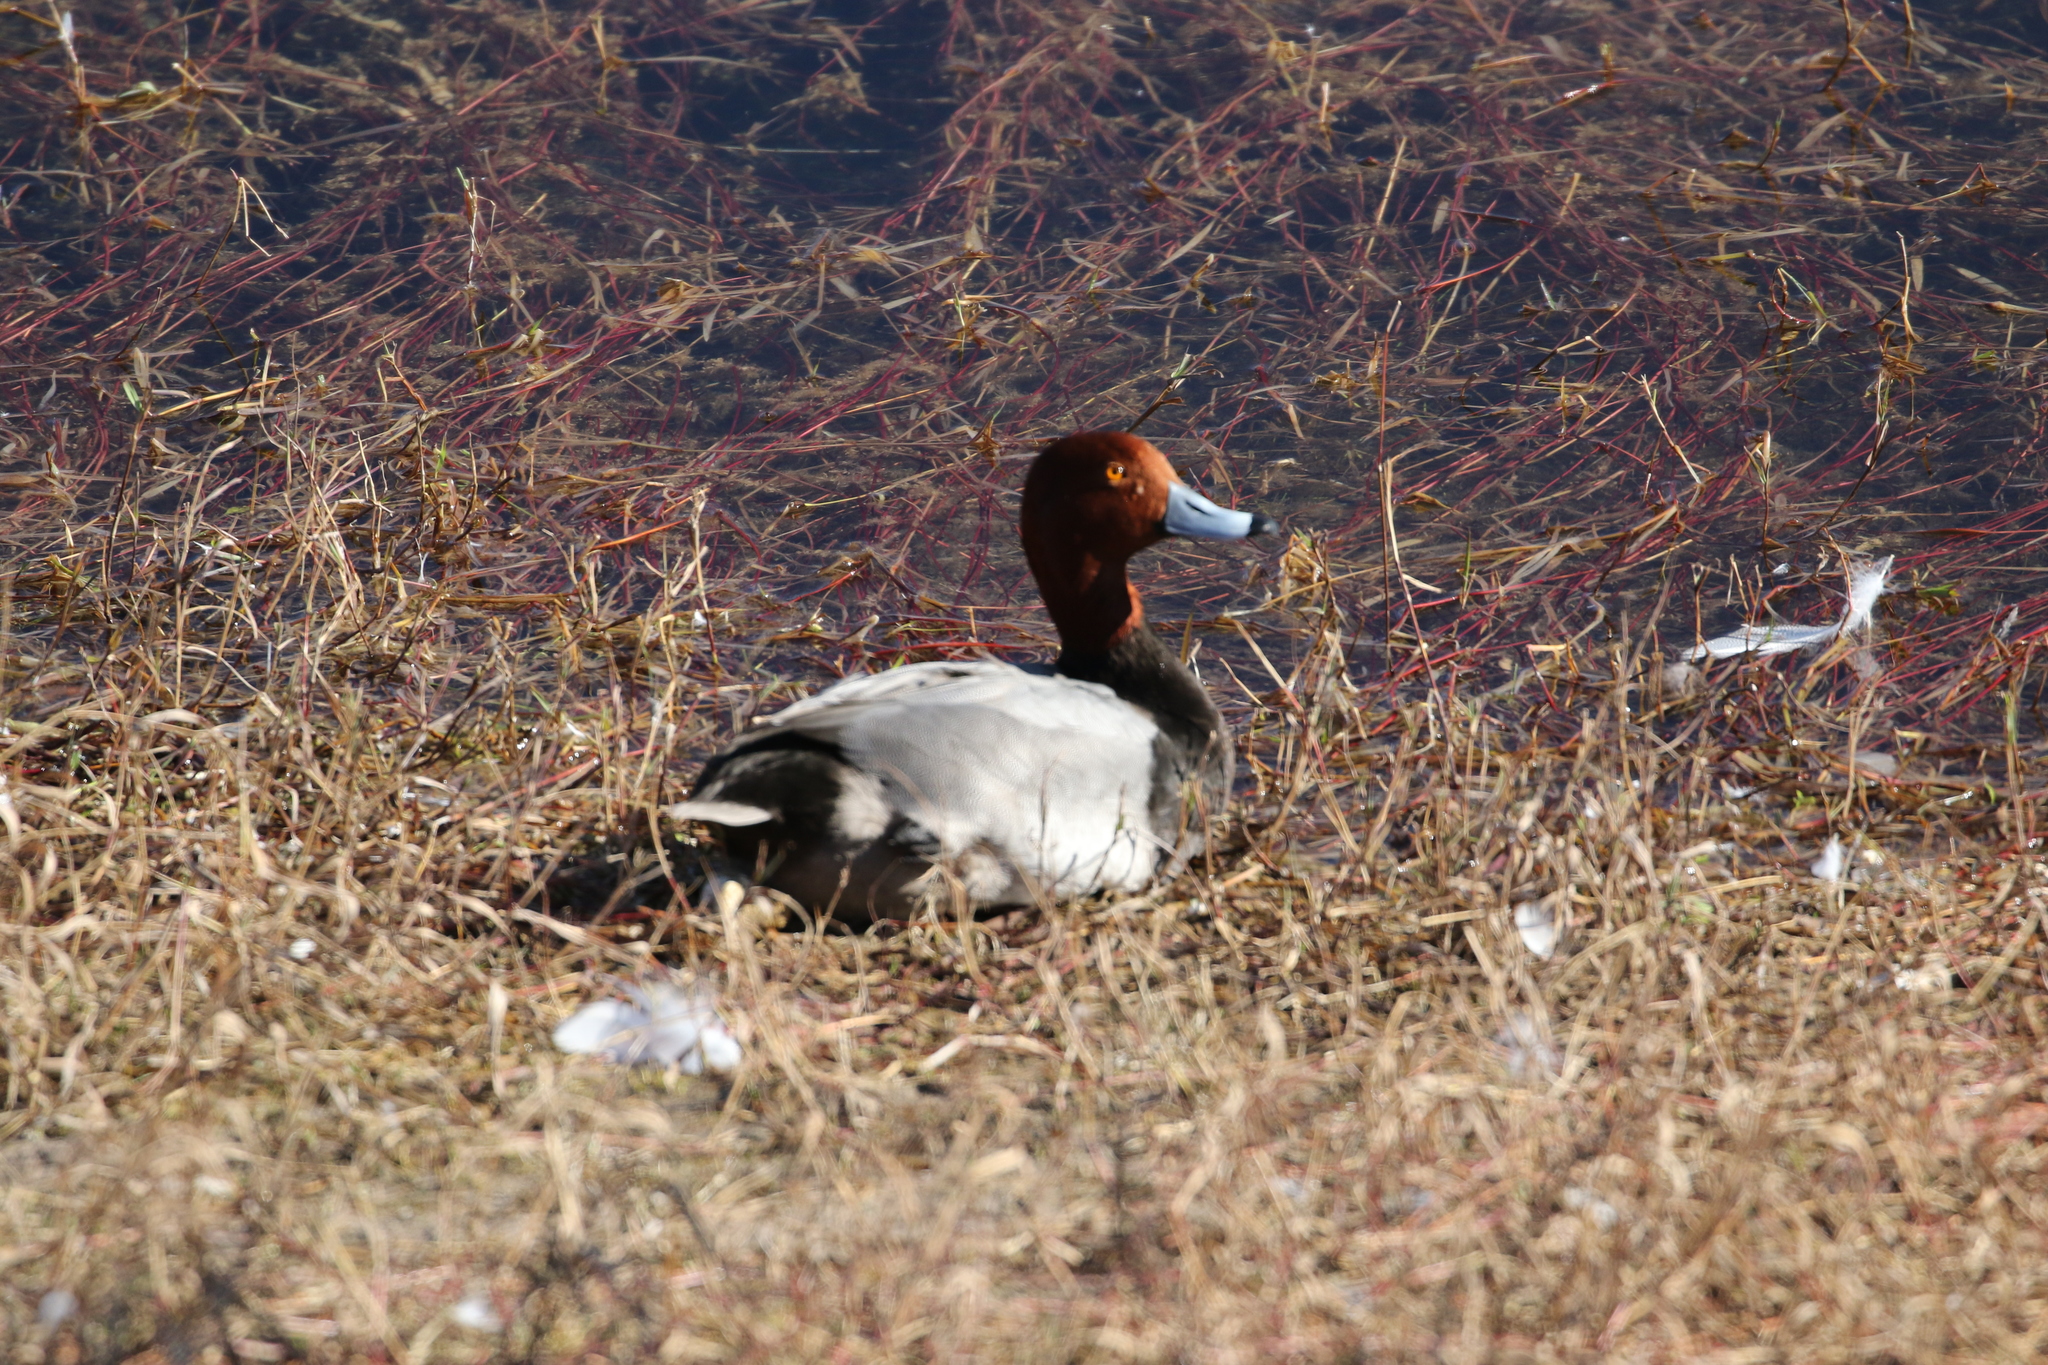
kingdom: Animalia
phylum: Chordata
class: Aves
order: Anseriformes
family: Anatidae
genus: Aythya
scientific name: Aythya americana
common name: Redhead
